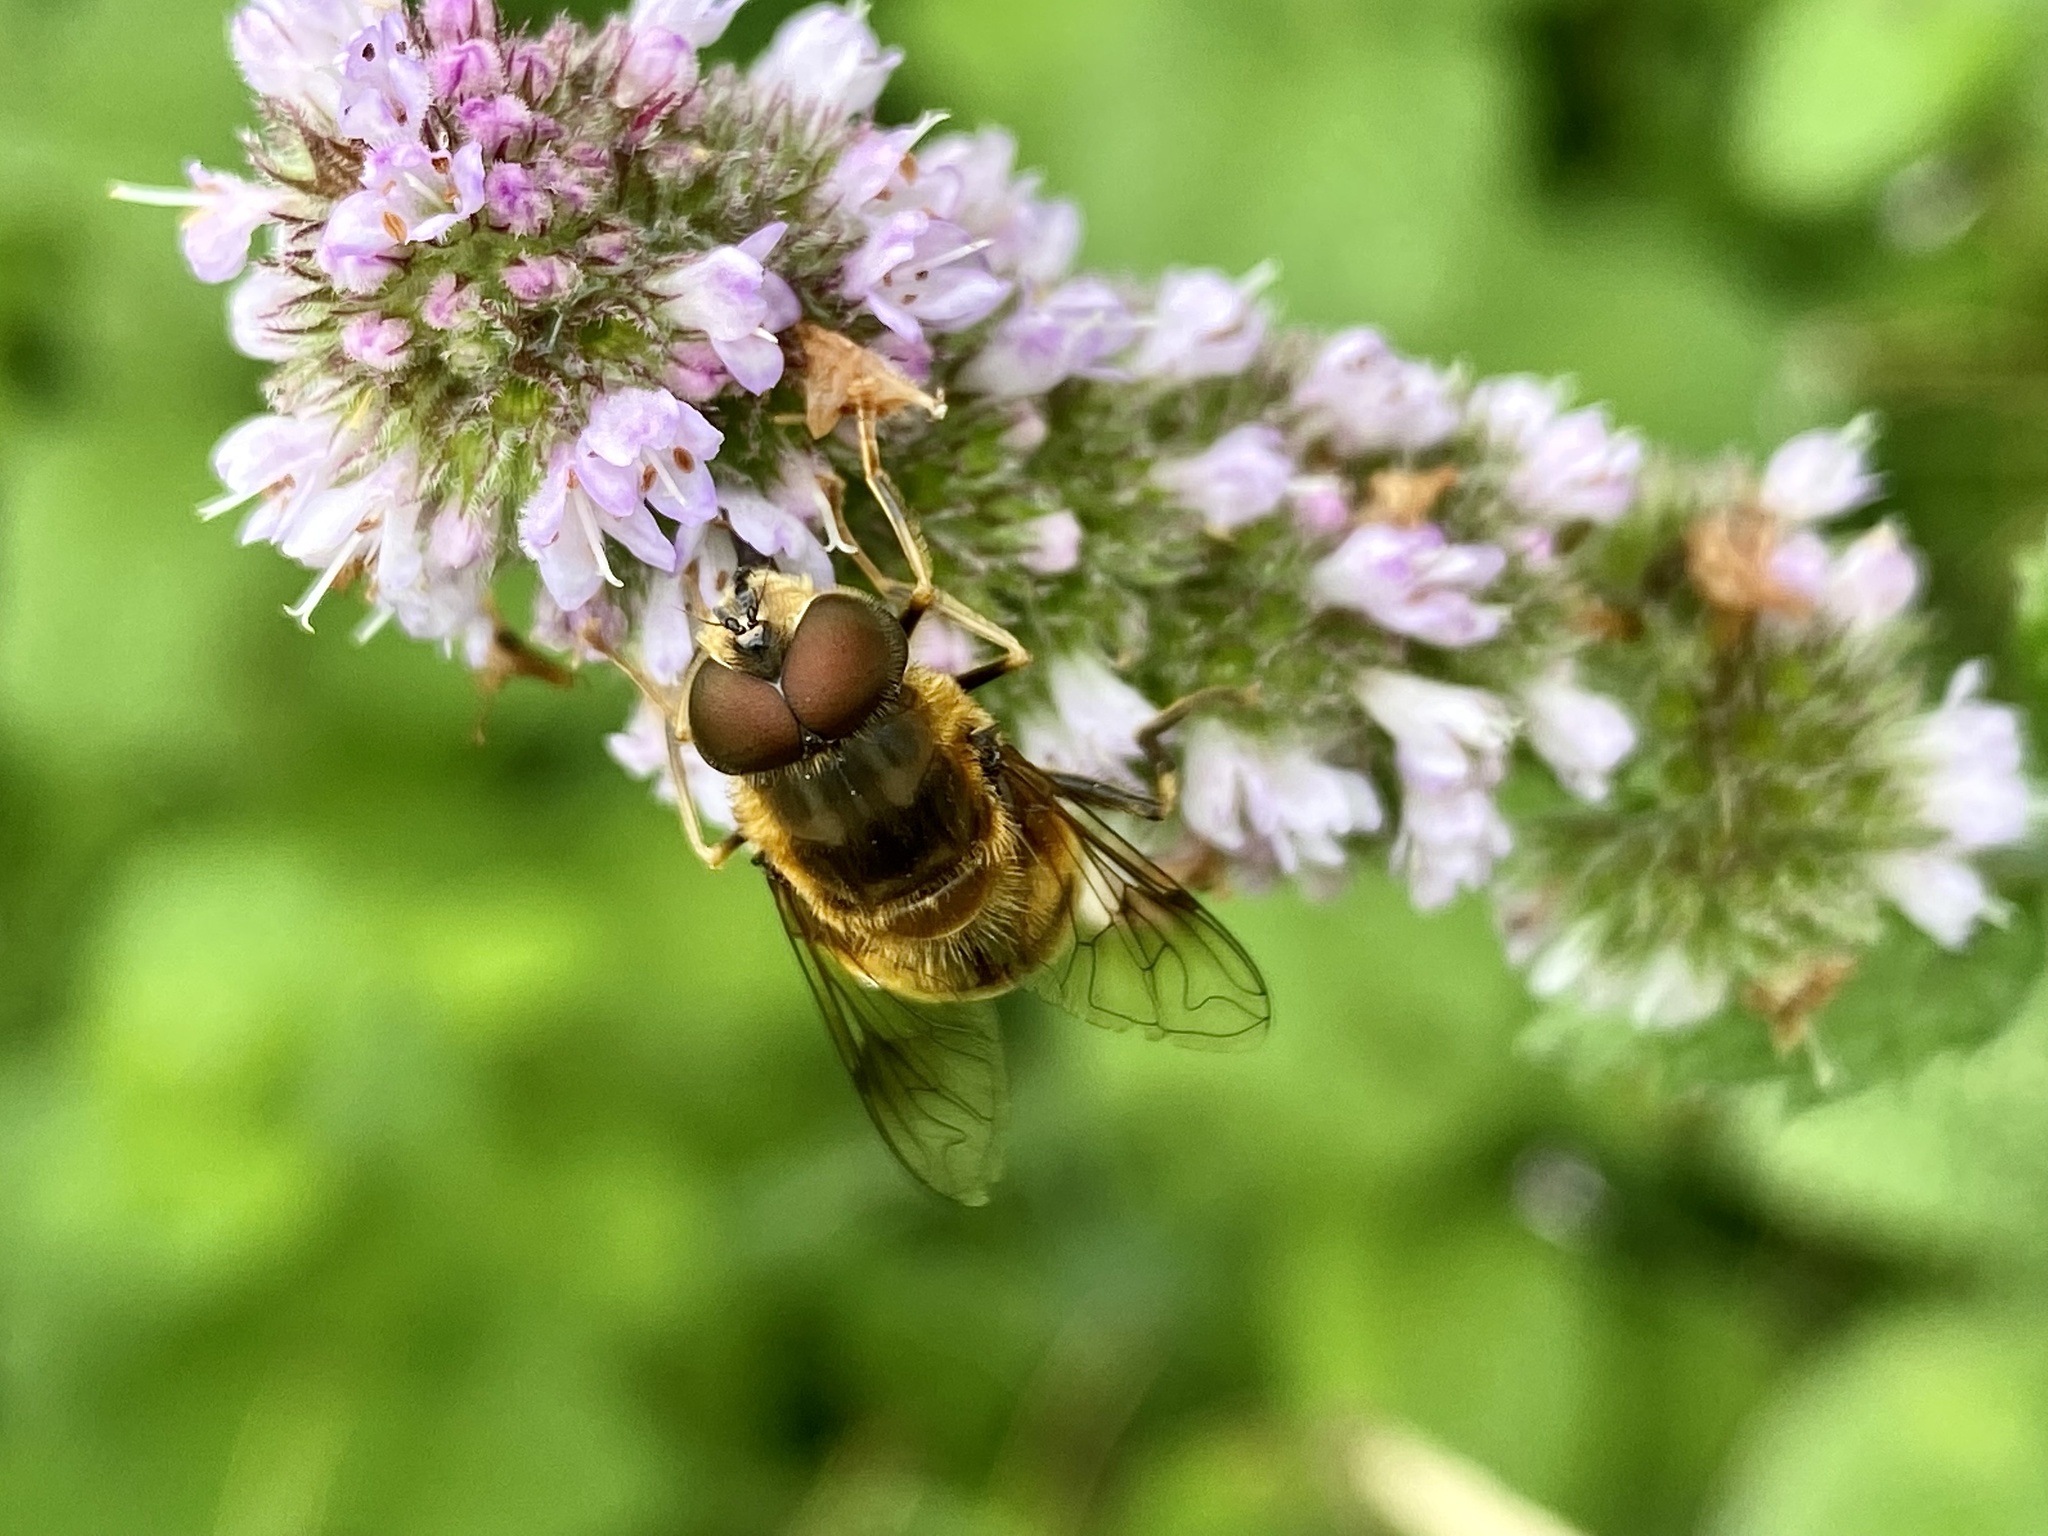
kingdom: Animalia
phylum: Arthropoda
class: Insecta
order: Diptera
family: Syrphidae
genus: Eristalis
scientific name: Eristalis pertinax
